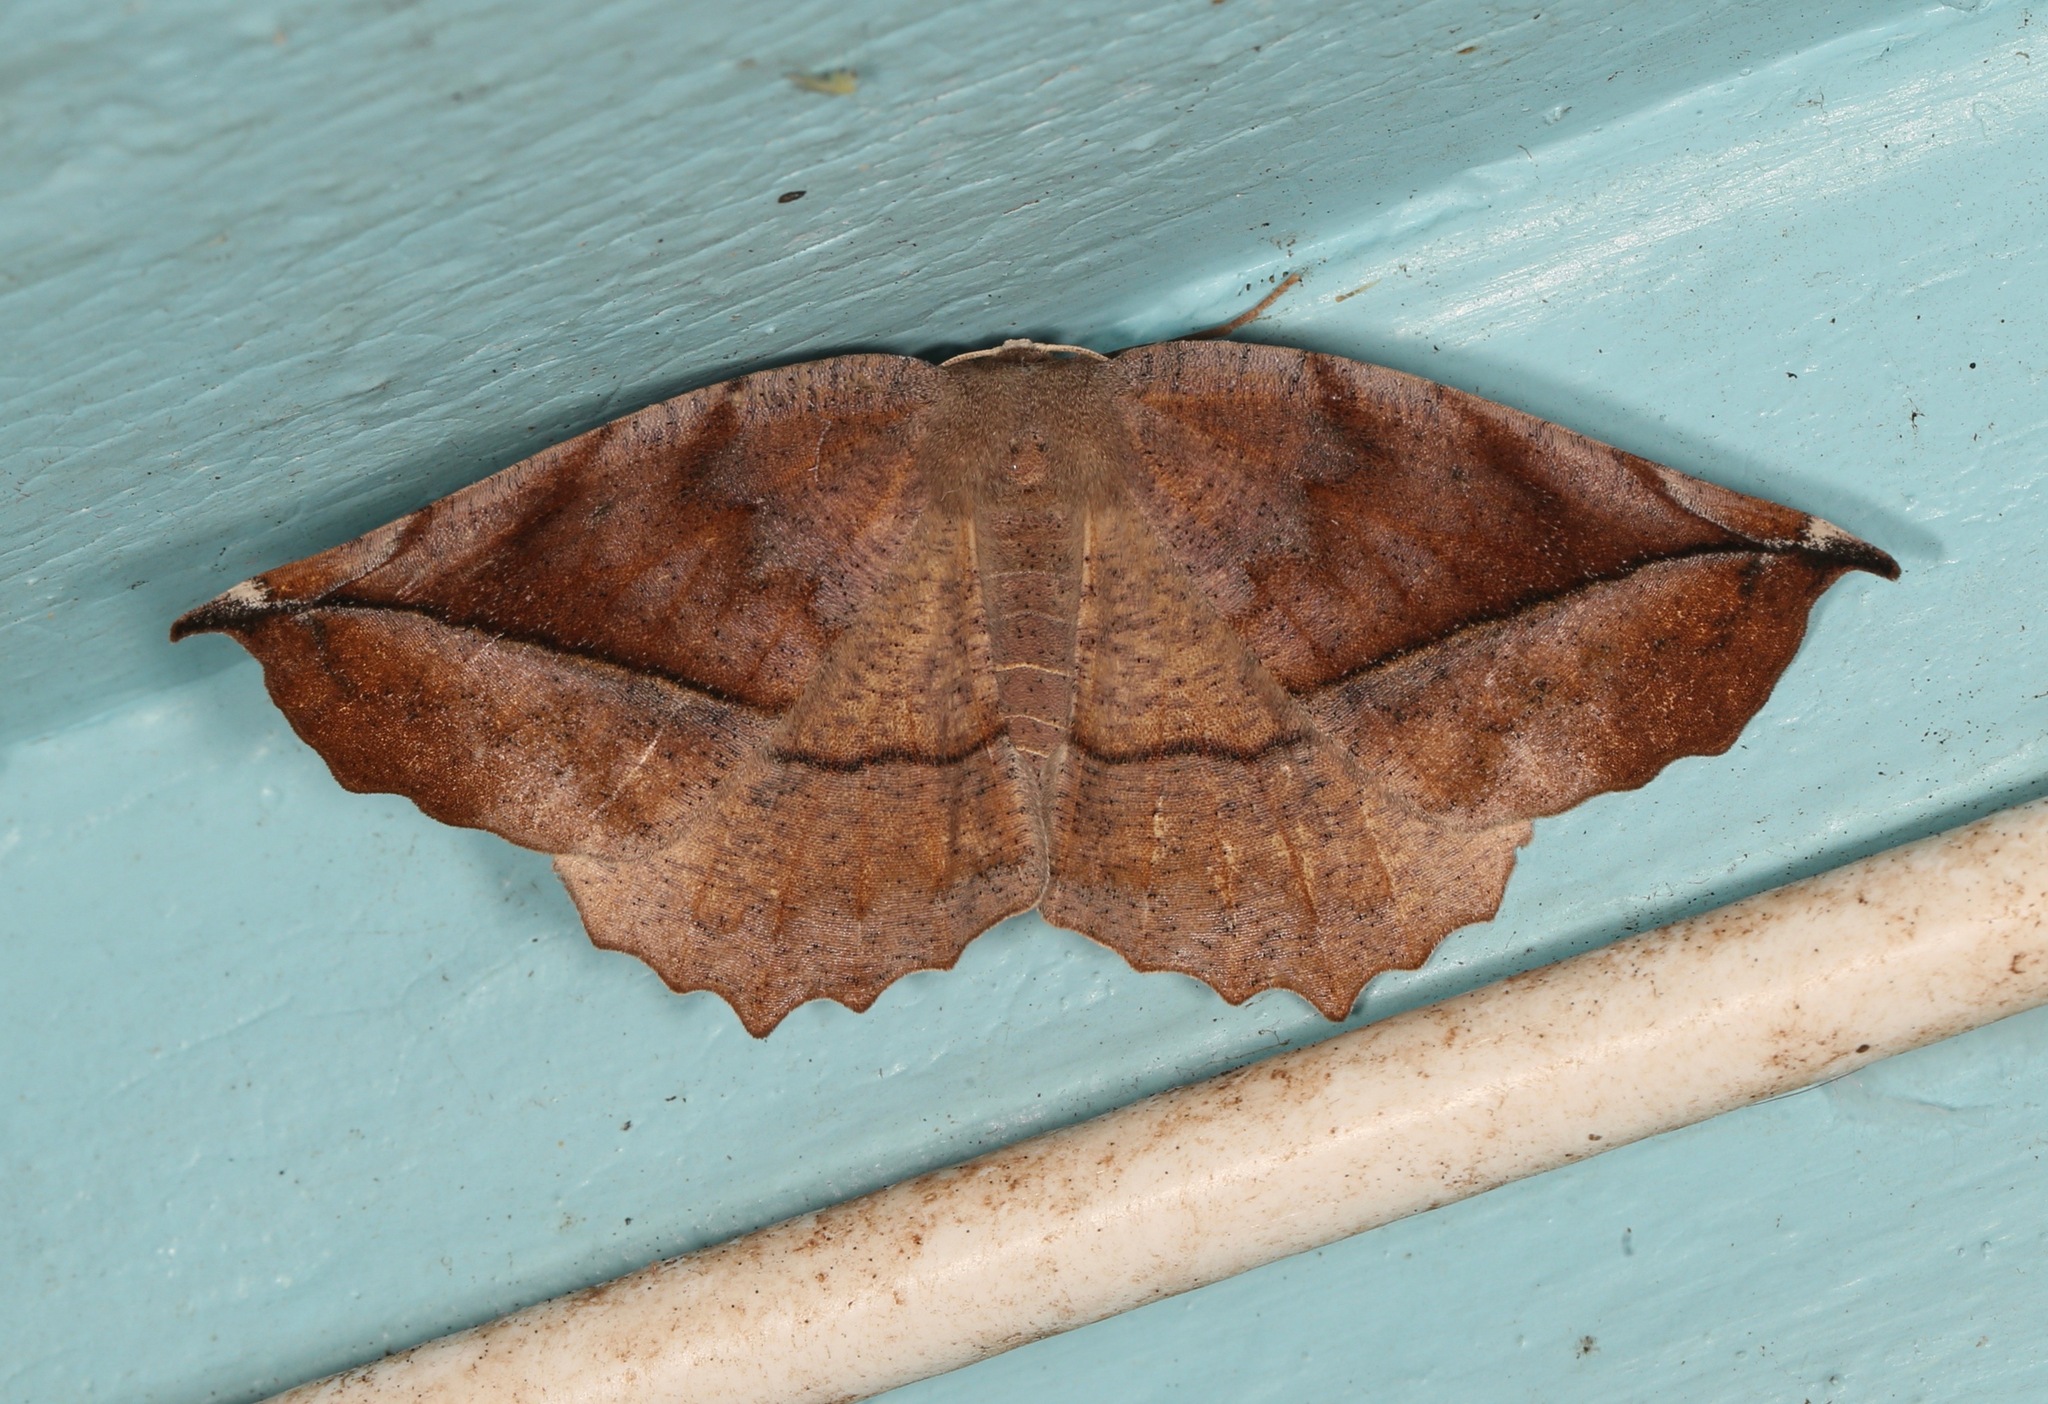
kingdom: Animalia
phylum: Arthropoda
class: Insecta
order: Lepidoptera
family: Geometridae
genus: Eutrapela
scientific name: Eutrapela clemataria
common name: Curved-toothed geometer
